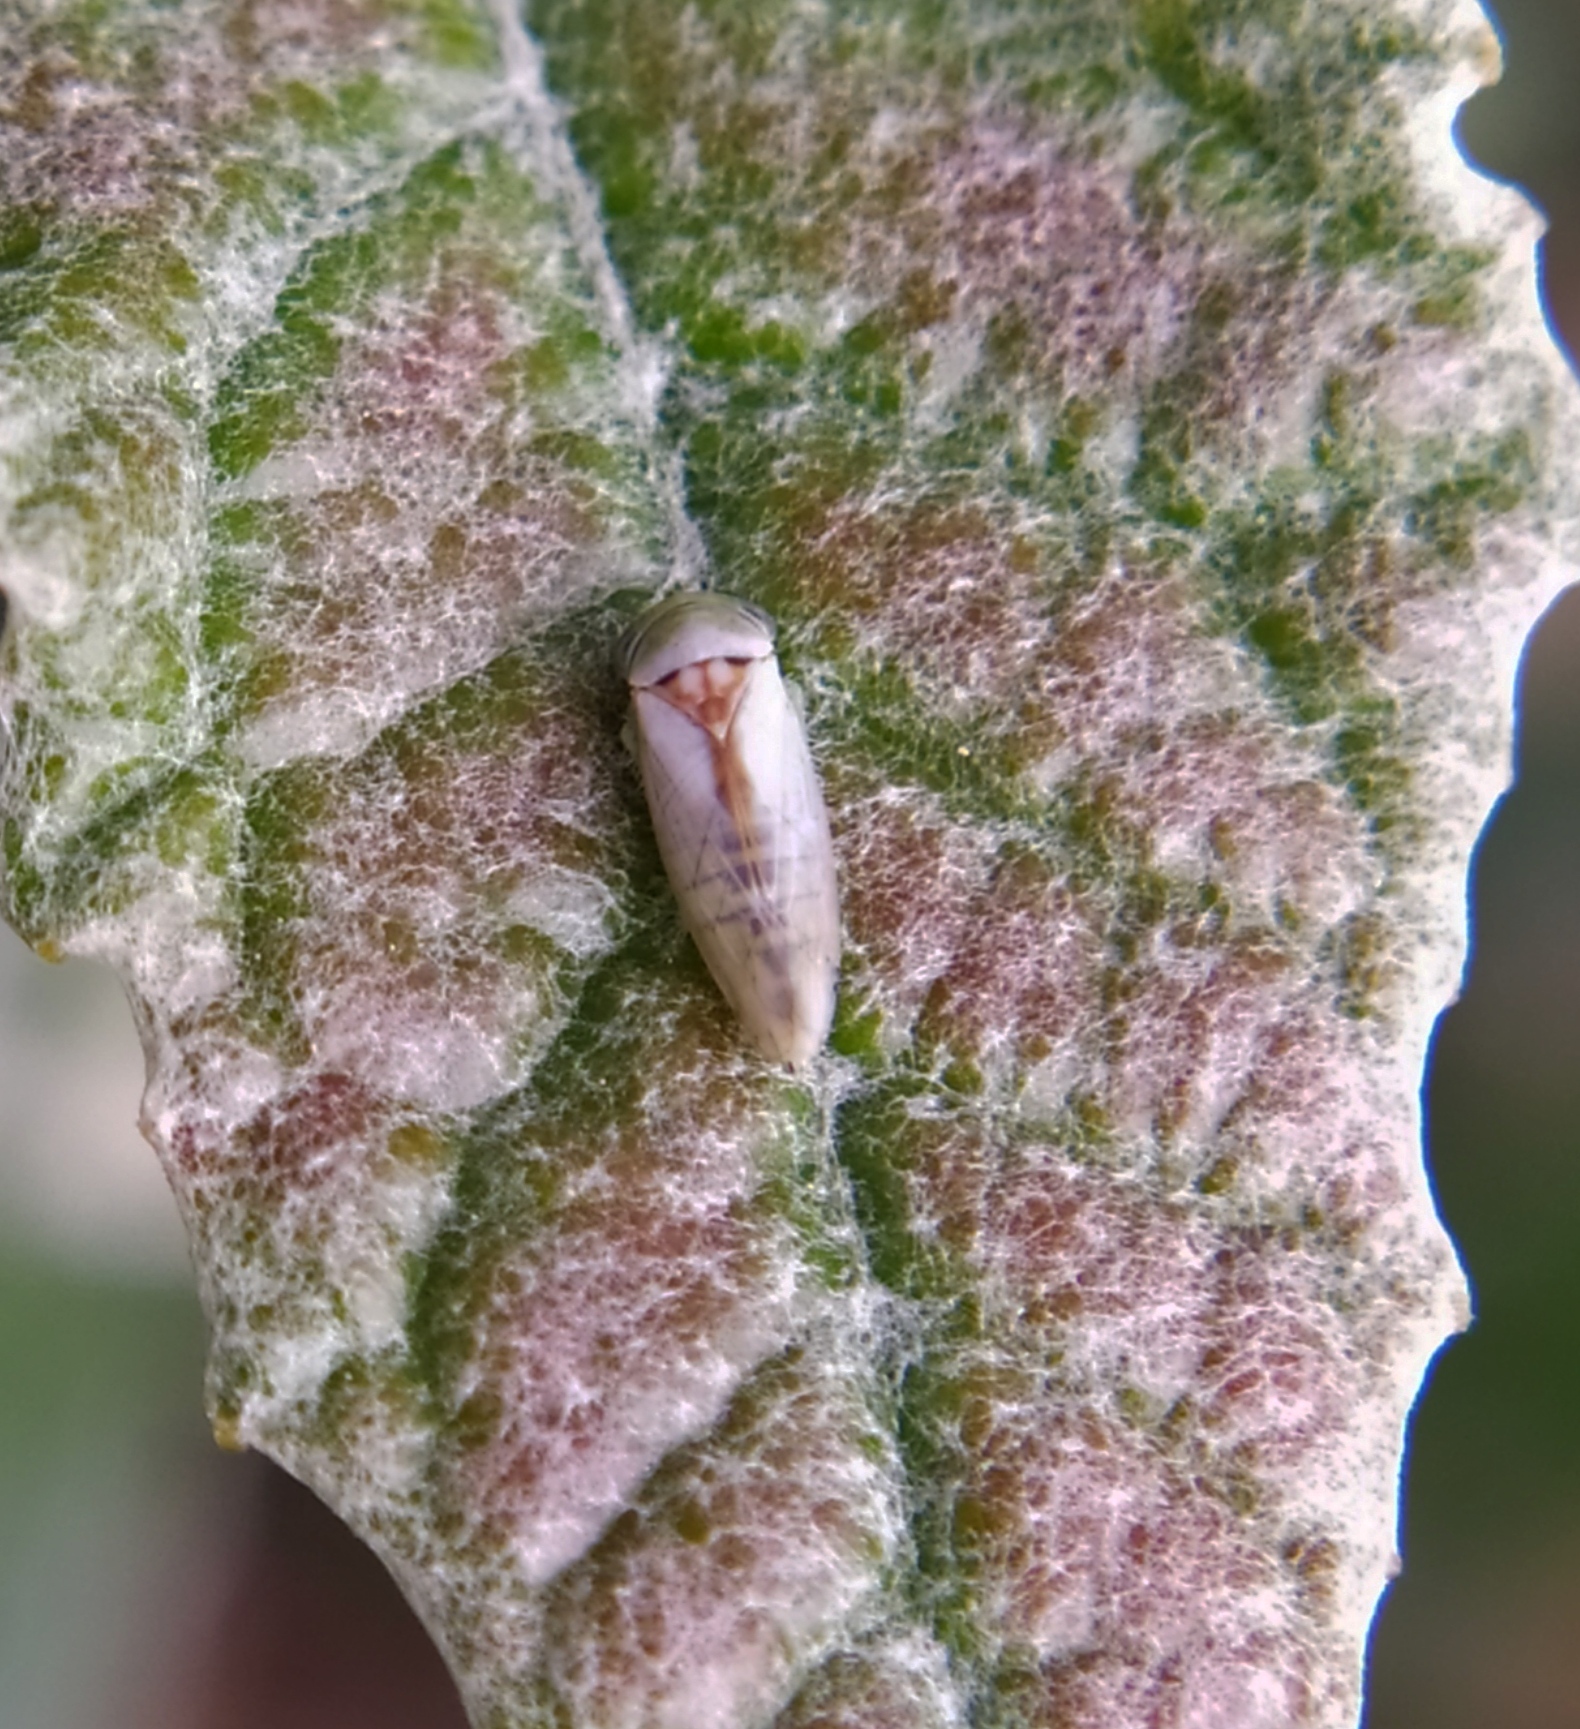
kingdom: Animalia
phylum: Arthropoda
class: Insecta
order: Hemiptera
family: Cicadellidae
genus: Viridicerus
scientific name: Viridicerus ustulatus
